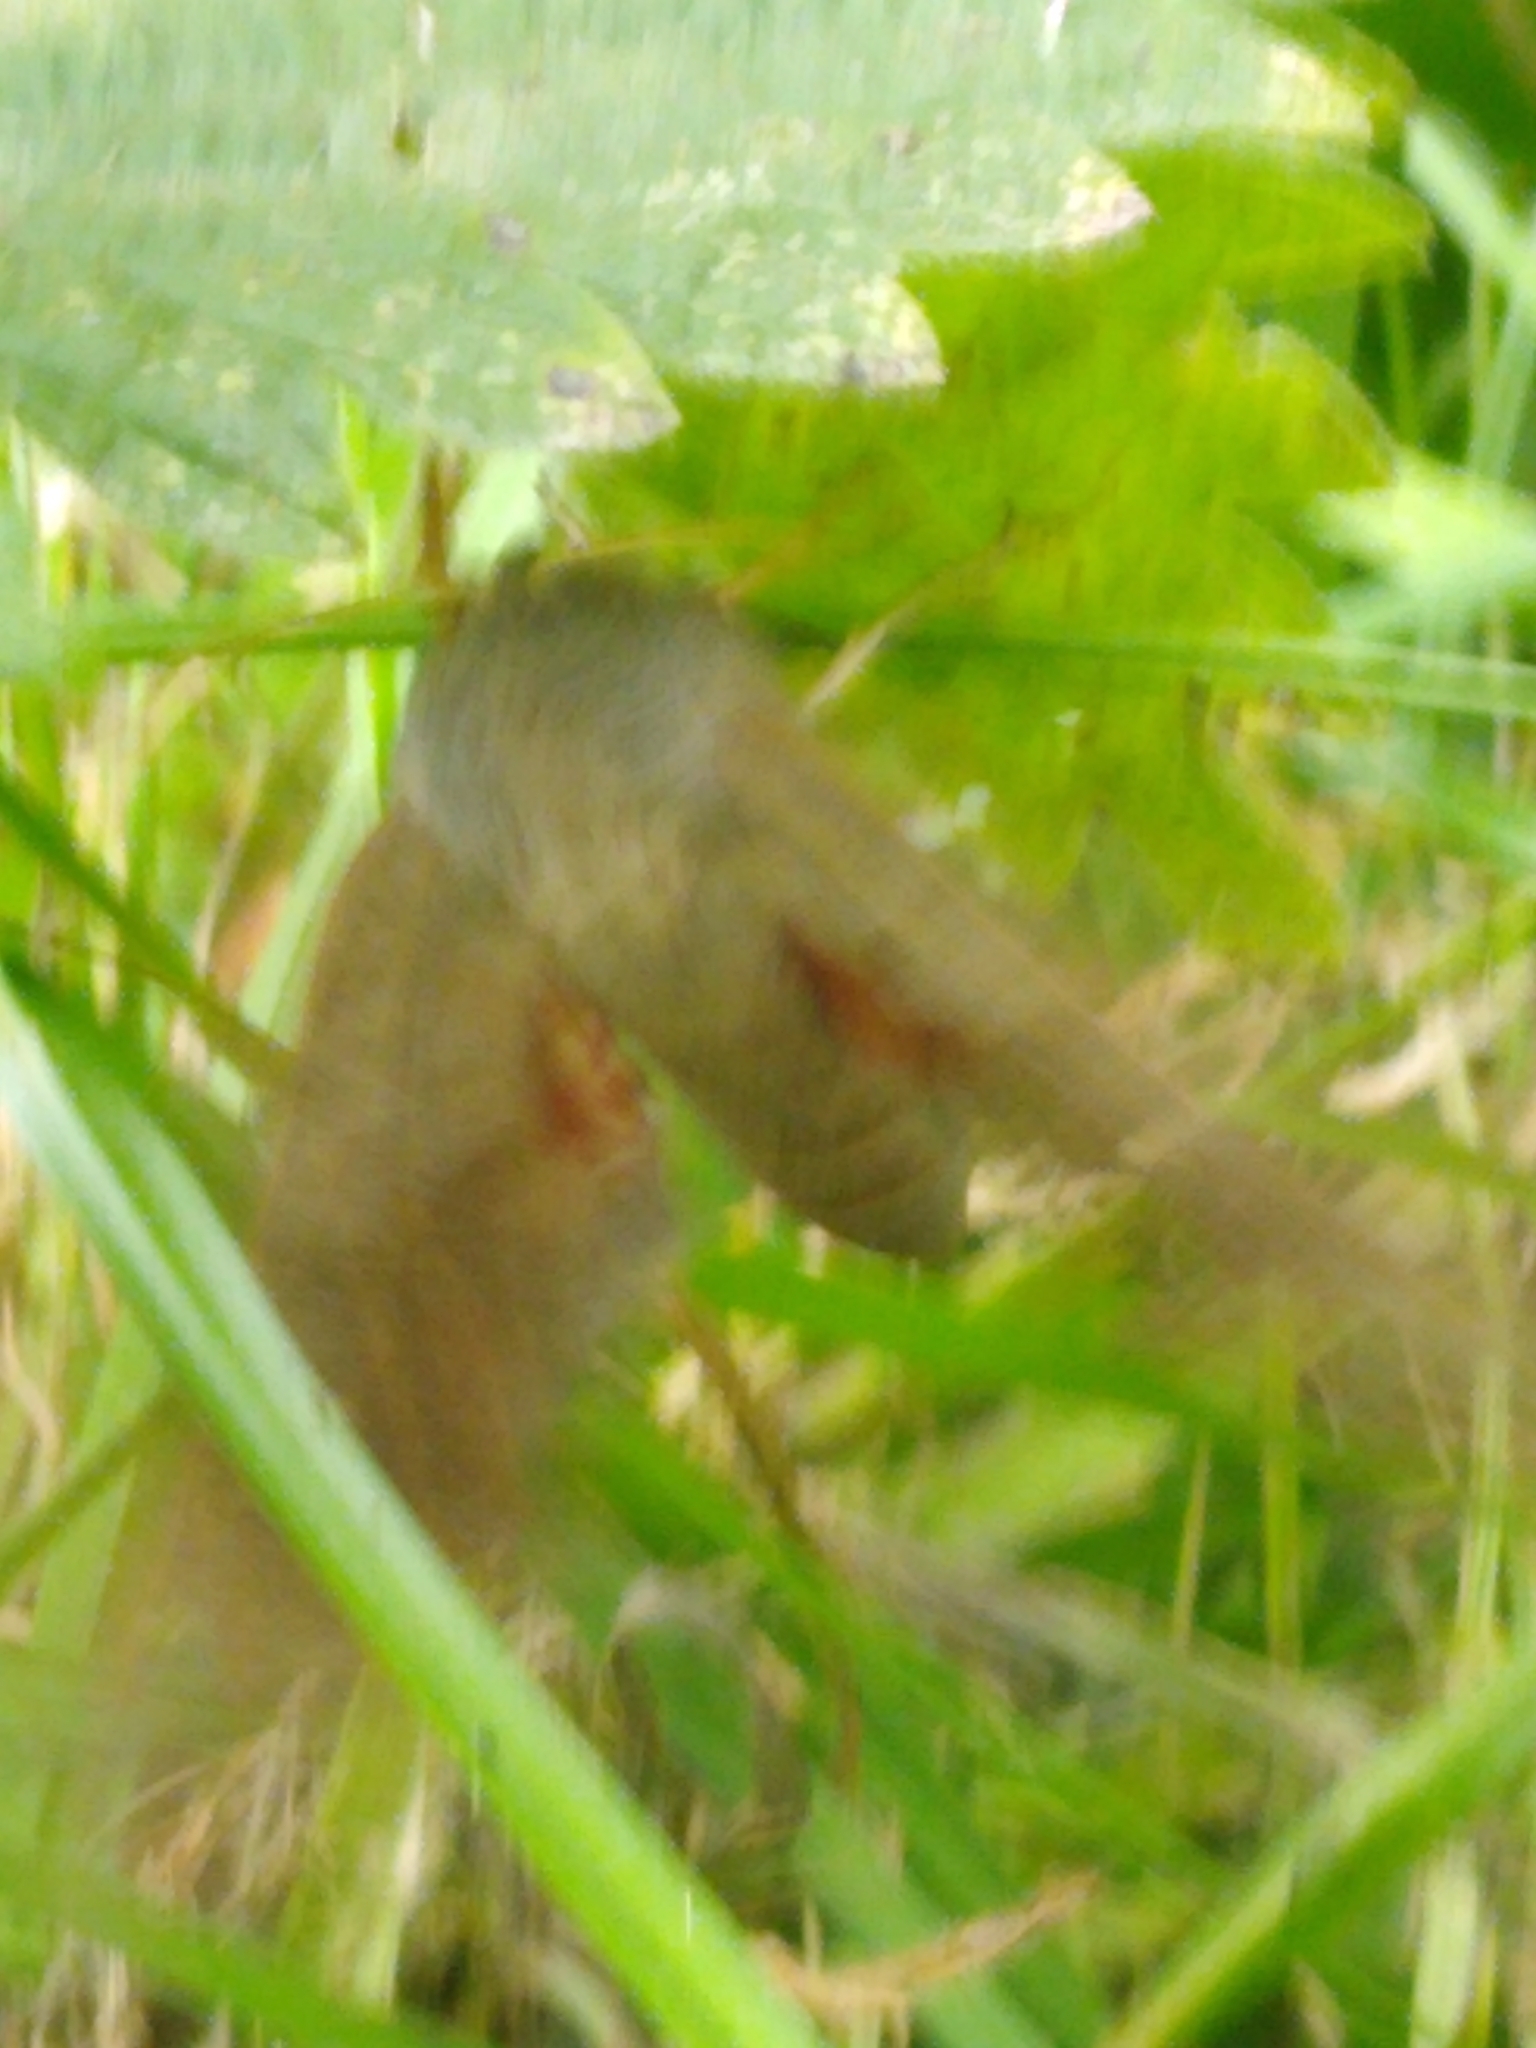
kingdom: Animalia
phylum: Arthropoda
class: Insecta
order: Lepidoptera
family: Sphingidae
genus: Laothoe
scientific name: Laothoe populi
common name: Poplar hawk-moth
